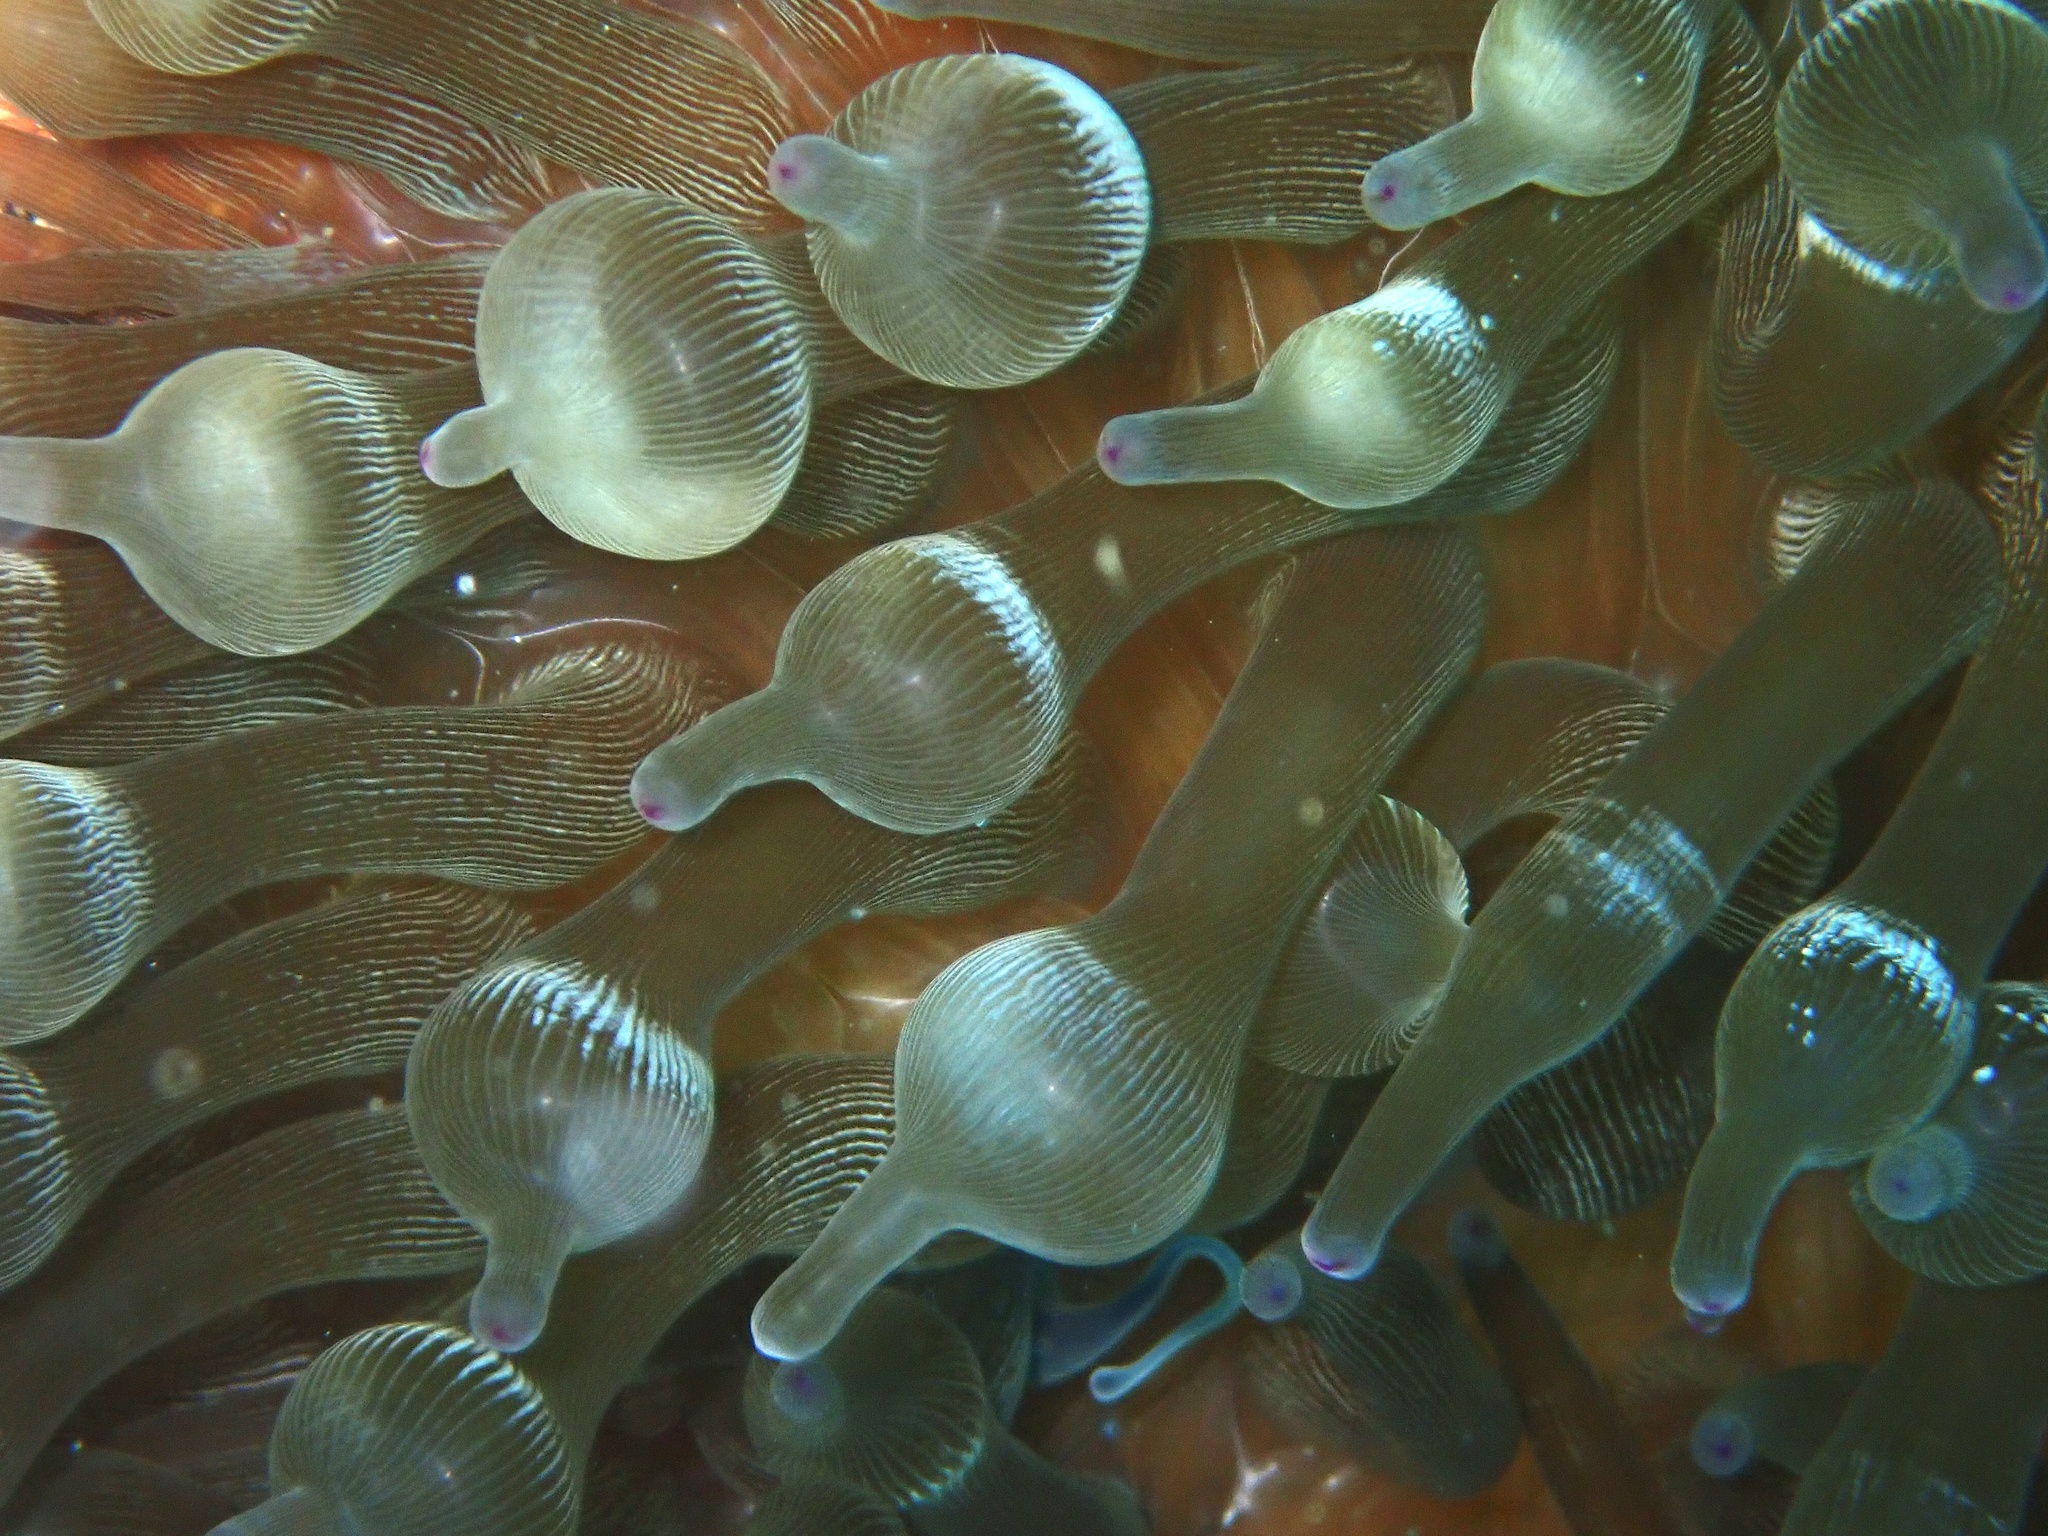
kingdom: Animalia
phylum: Cnidaria
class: Anthozoa
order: Actiniaria
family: Actiniidae
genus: Entacmaea
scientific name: Entacmaea quadricolor
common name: Bulb tentacle sea anemone
